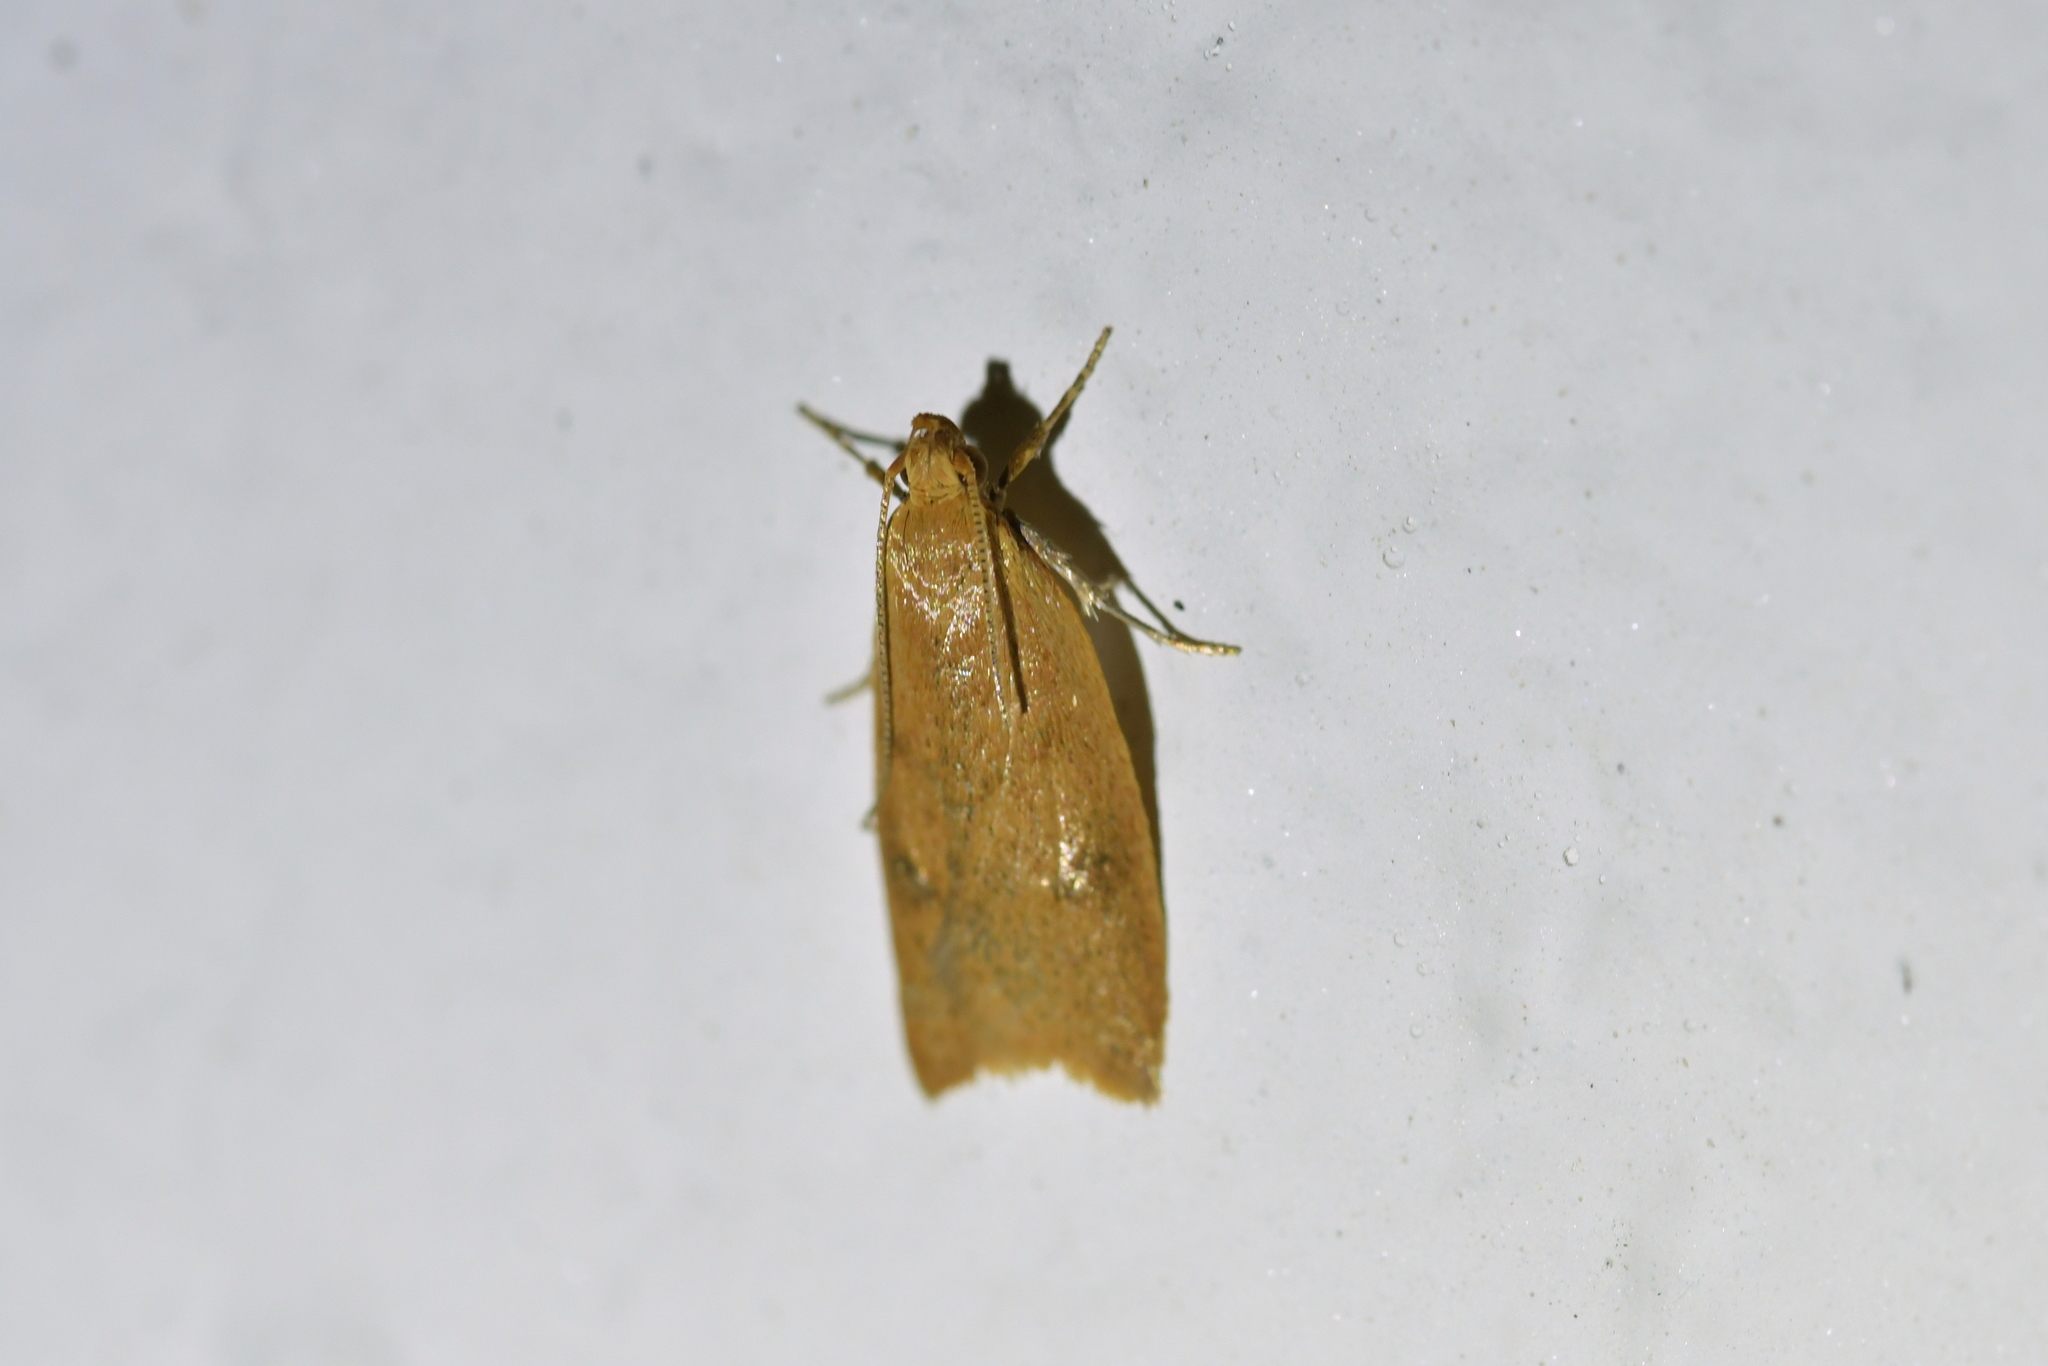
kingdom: Animalia
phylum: Arthropoda
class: Insecta
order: Lepidoptera
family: Oecophoridae
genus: Gymnobathra
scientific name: Gymnobathra sarcoxantha
